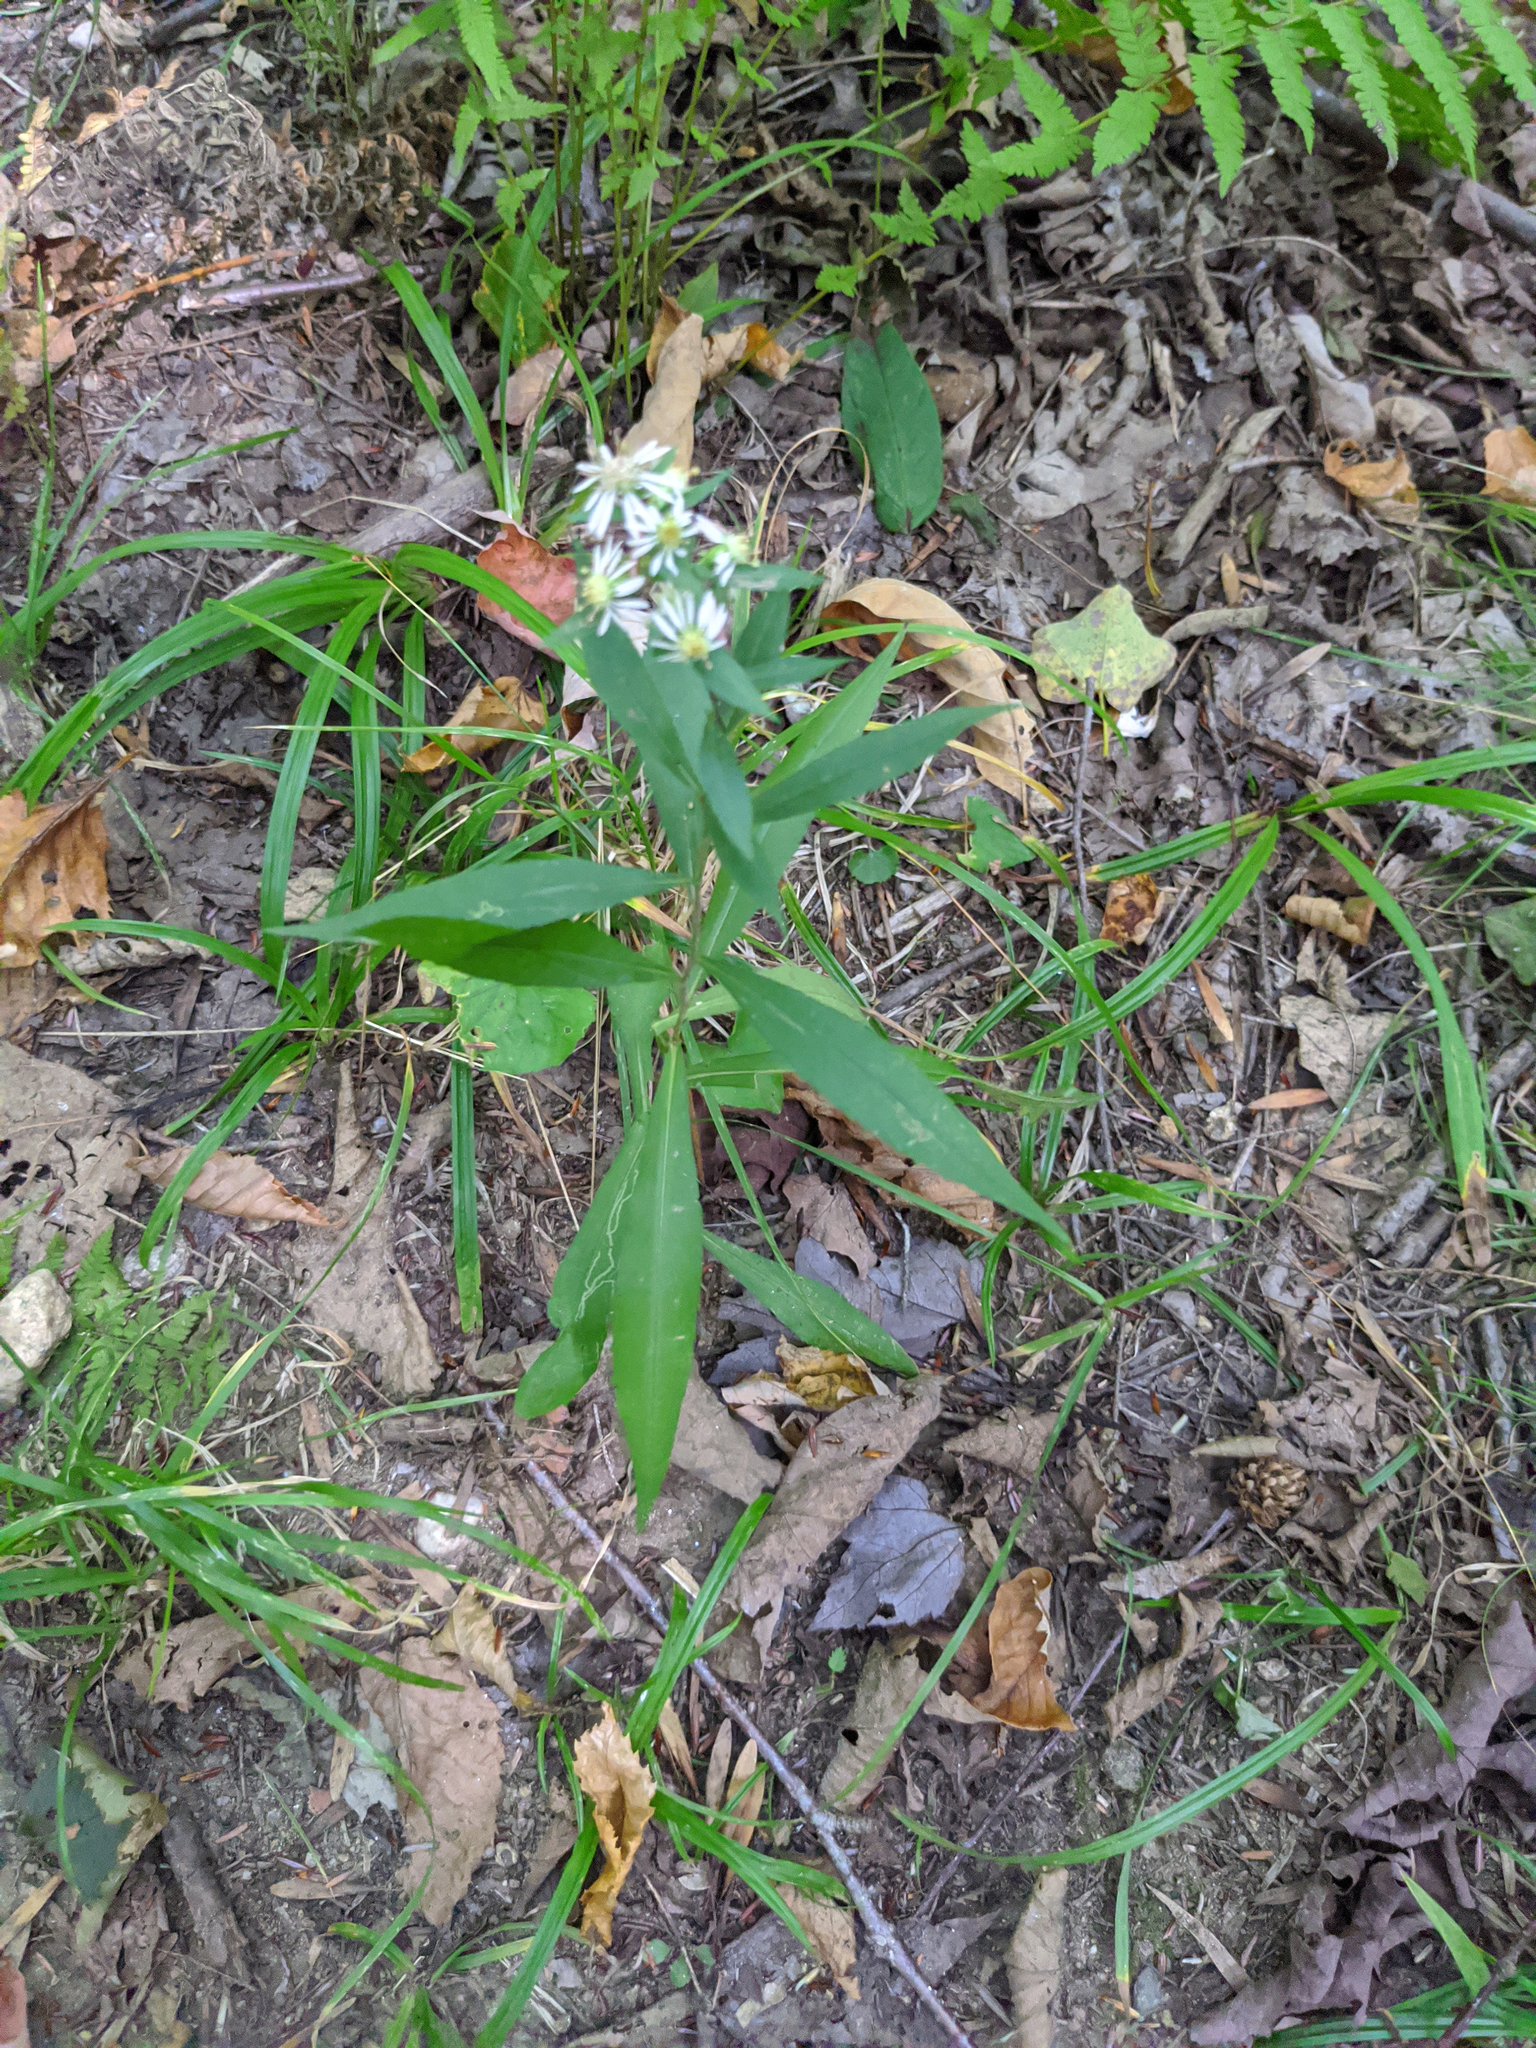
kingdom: Plantae
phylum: Tracheophyta
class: Magnoliopsida
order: Asterales
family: Asteraceae
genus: Symphyotrichum
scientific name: Symphyotrichum lateriflorum
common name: Calico aster
